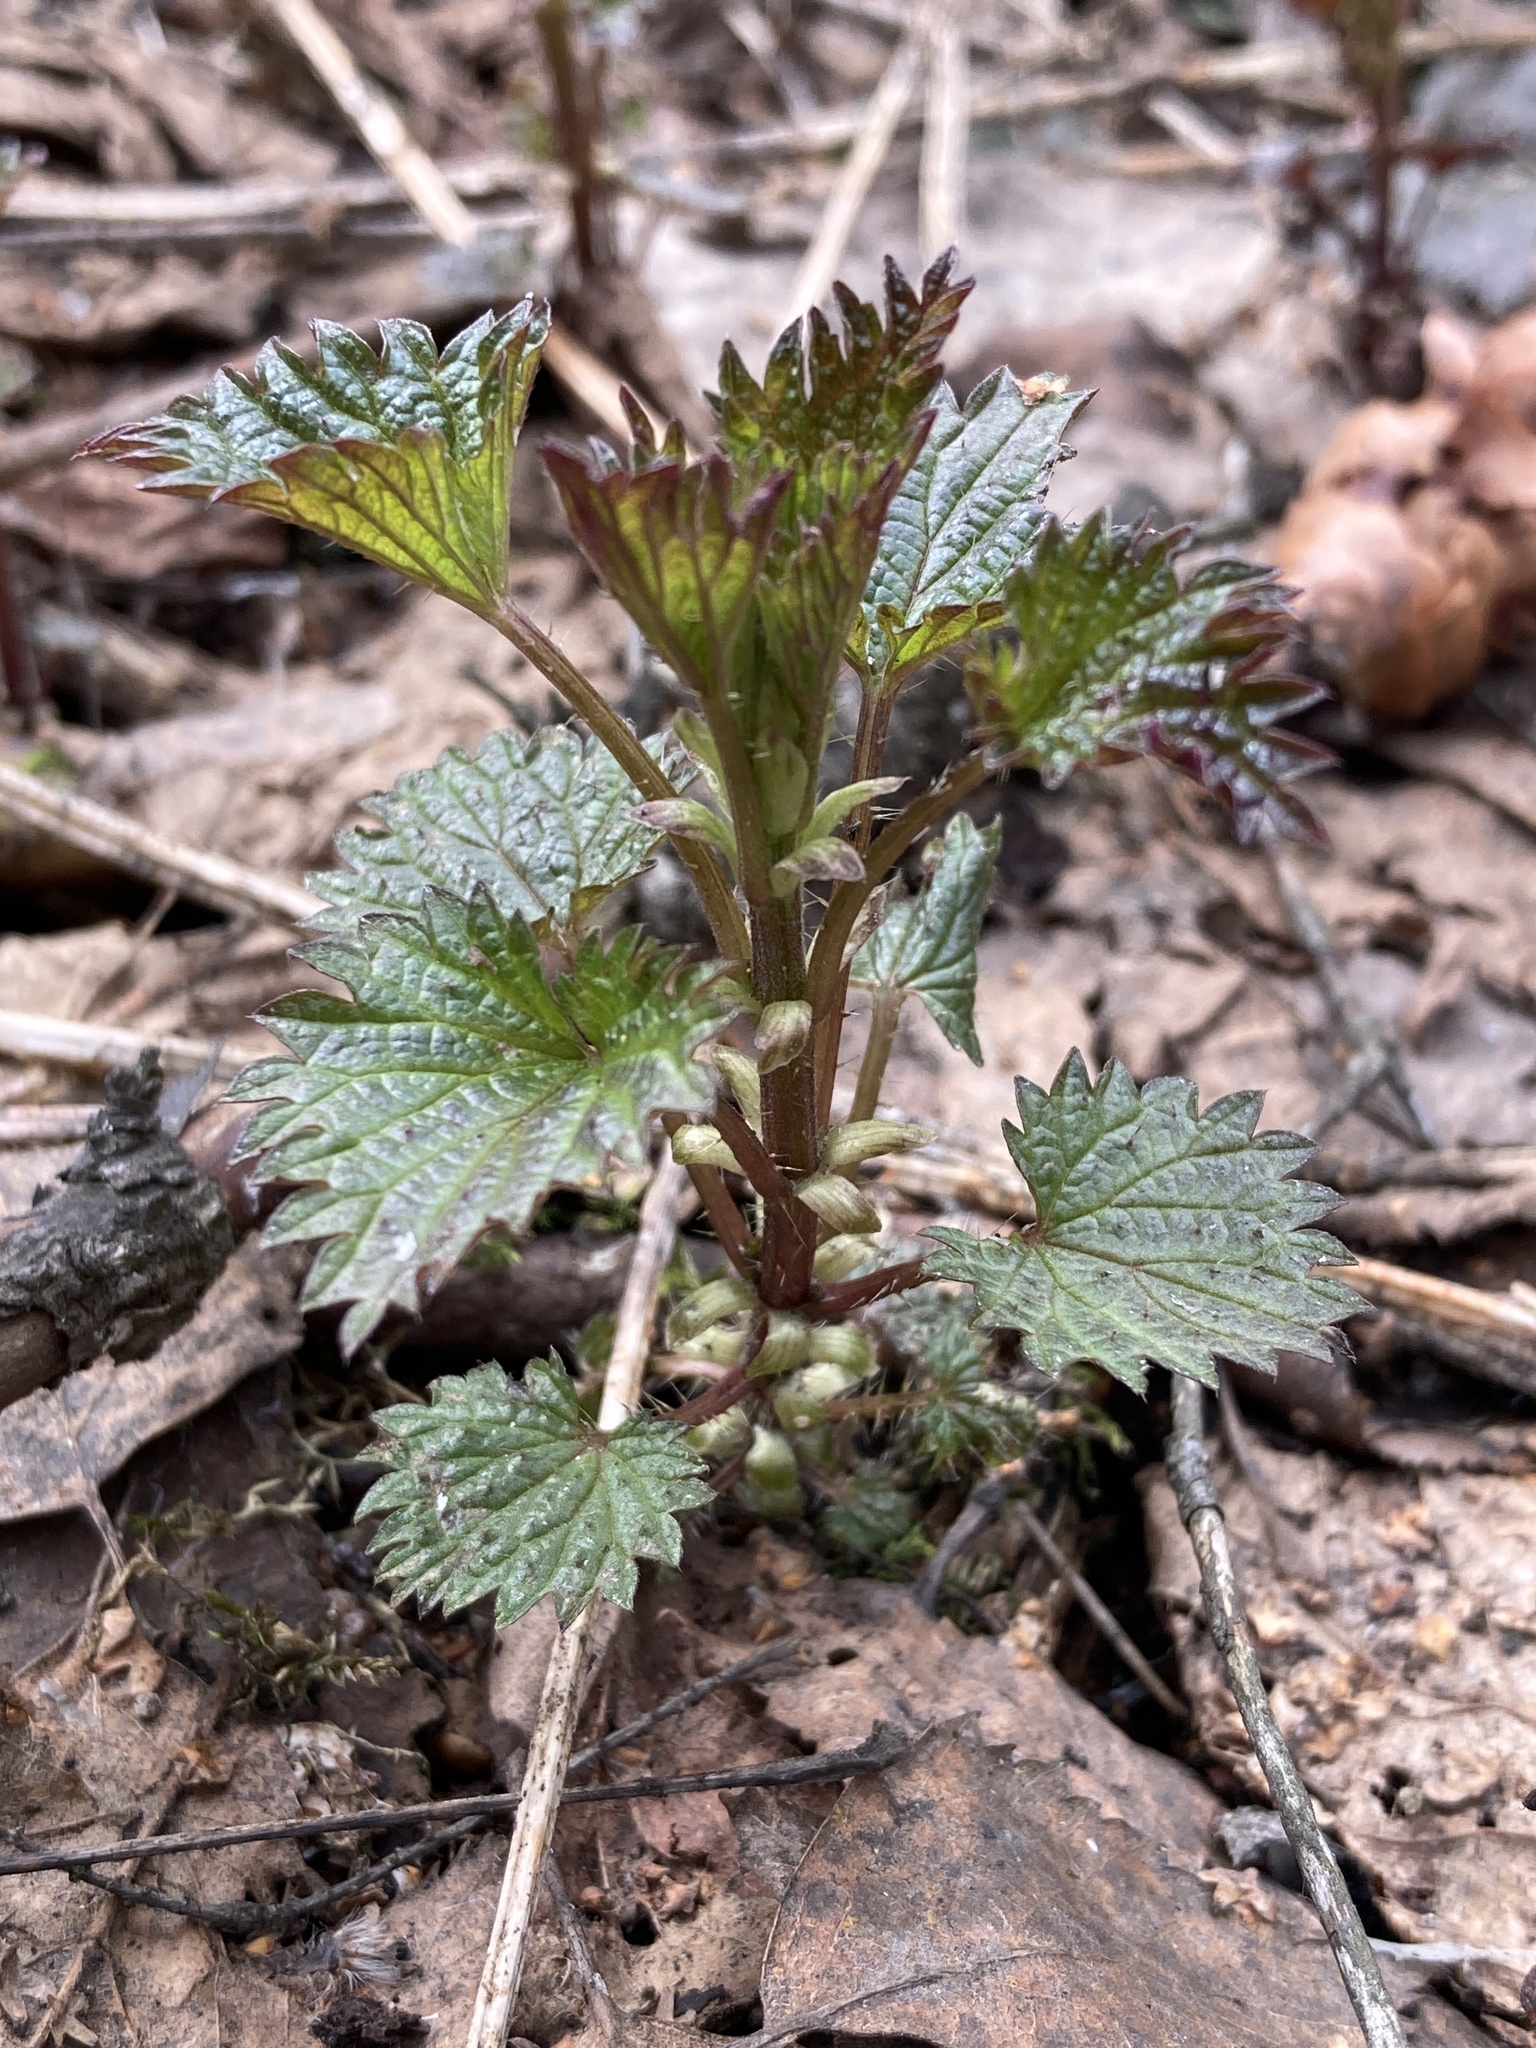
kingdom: Plantae
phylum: Tracheophyta
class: Magnoliopsida
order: Rosales
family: Urticaceae
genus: Urtica
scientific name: Urtica dioica
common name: Common nettle
